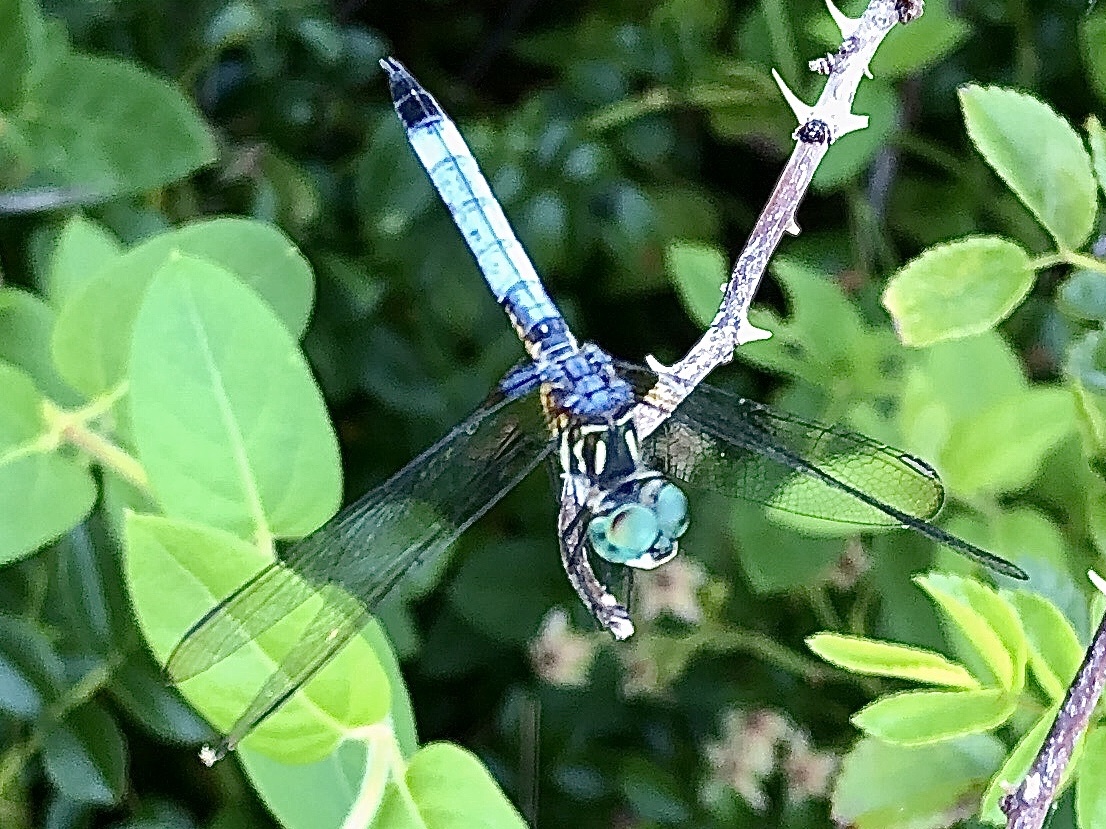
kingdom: Animalia
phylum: Arthropoda
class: Insecta
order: Odonata
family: Libellulidae
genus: Pachydiplax
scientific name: Pachydiplax longipennis
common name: Blue dasher
